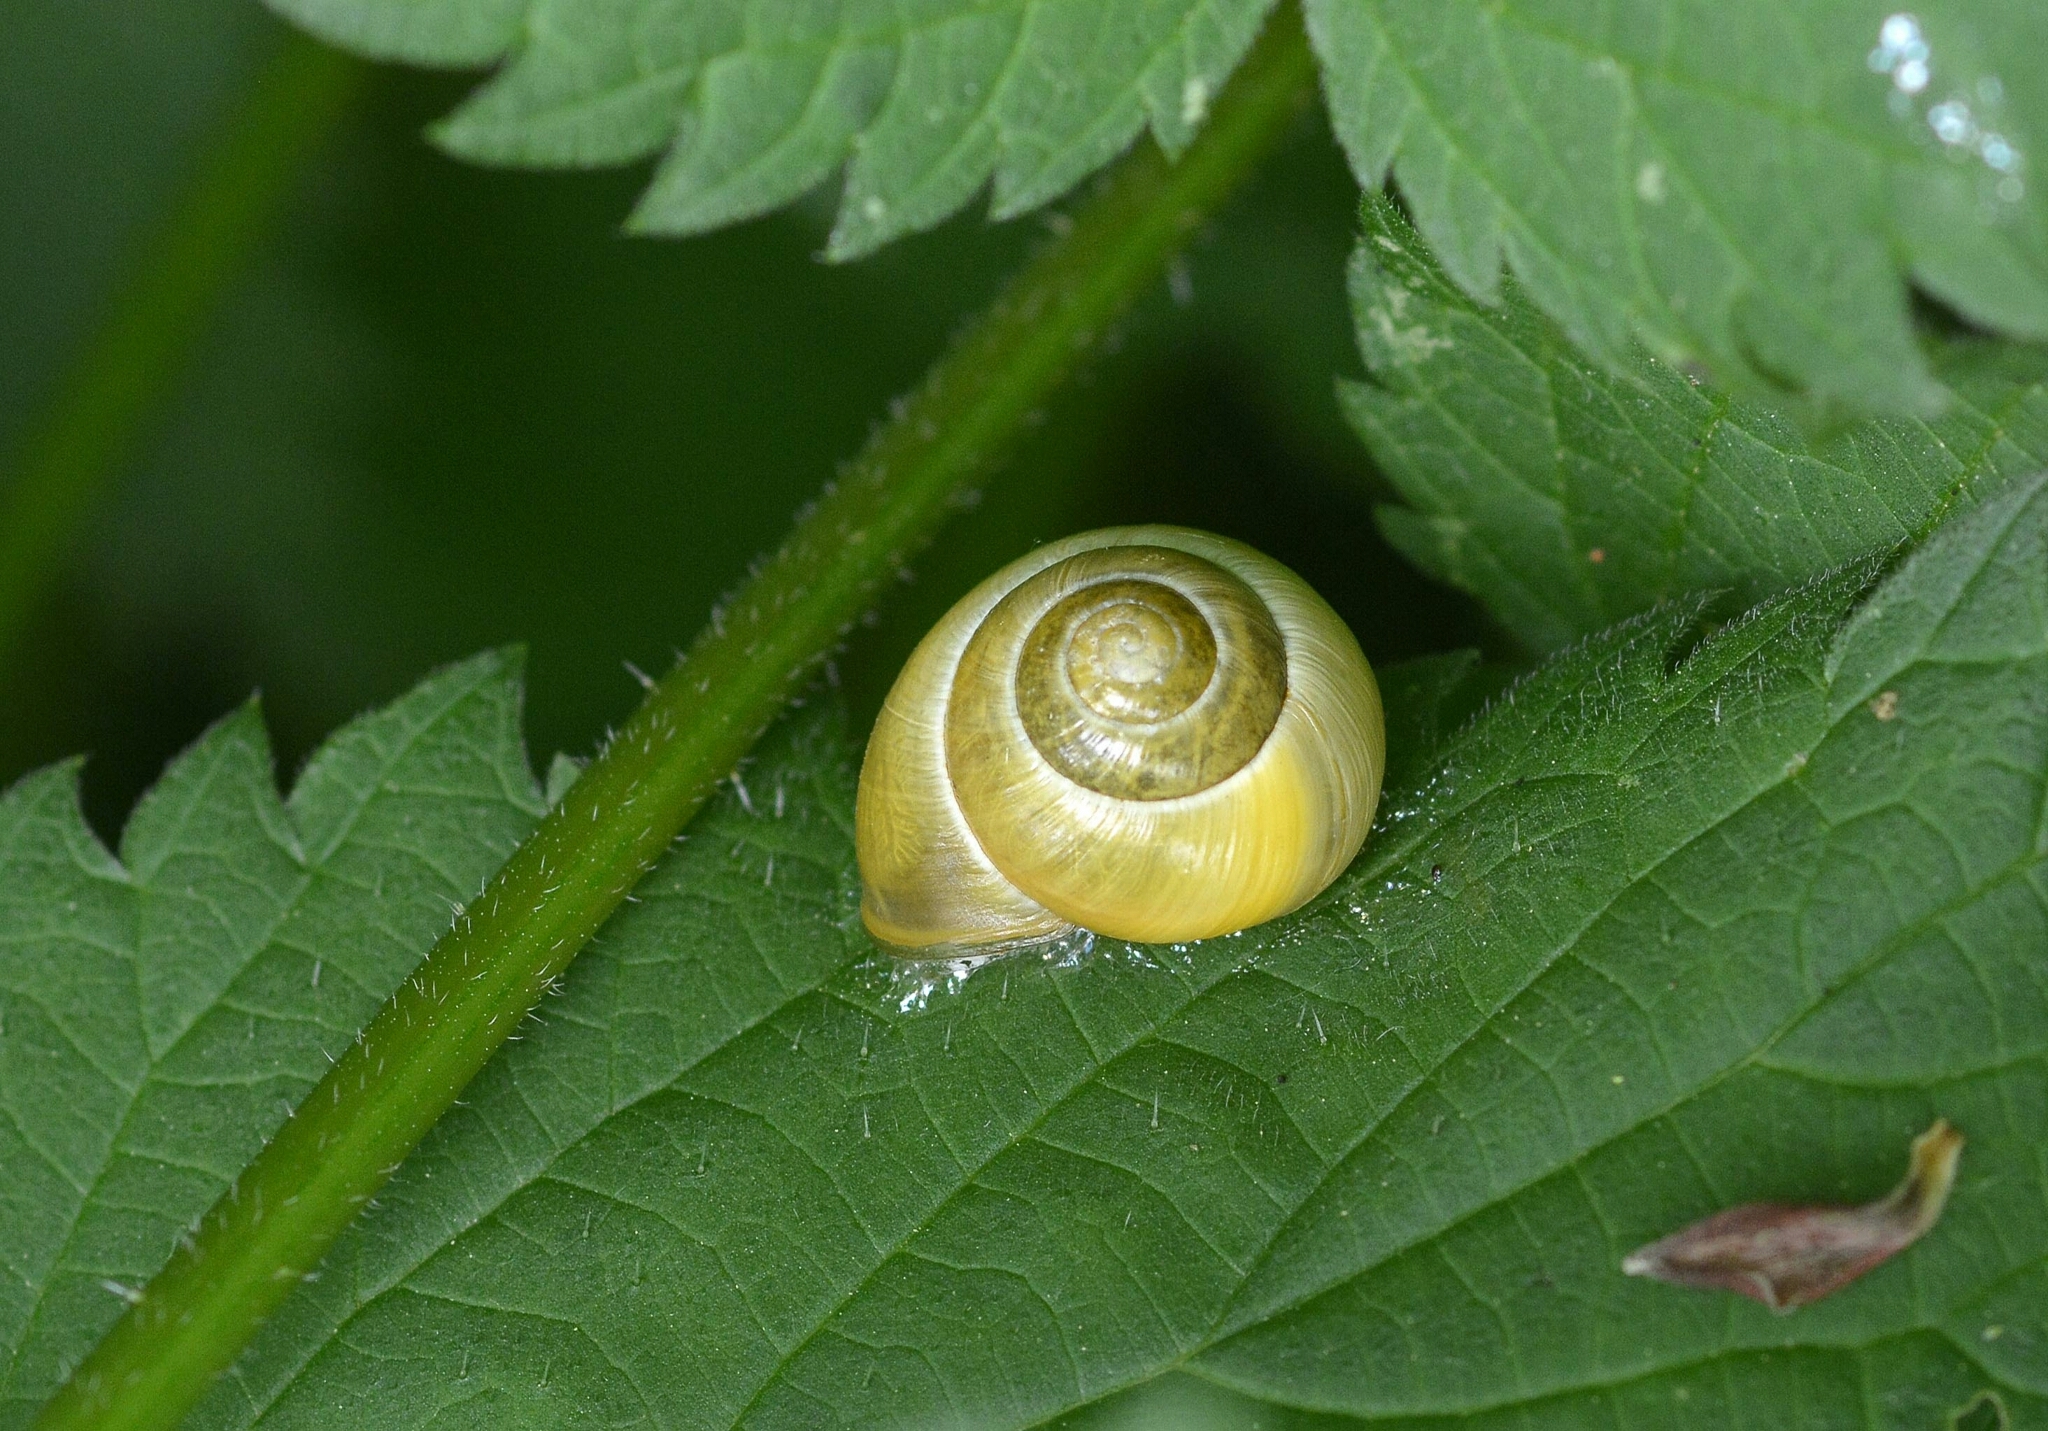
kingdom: Animalia
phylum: Mollusca
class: Gastropoda
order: Stylommatophora
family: Helicidae
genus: Cepaea
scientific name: Cepaea
